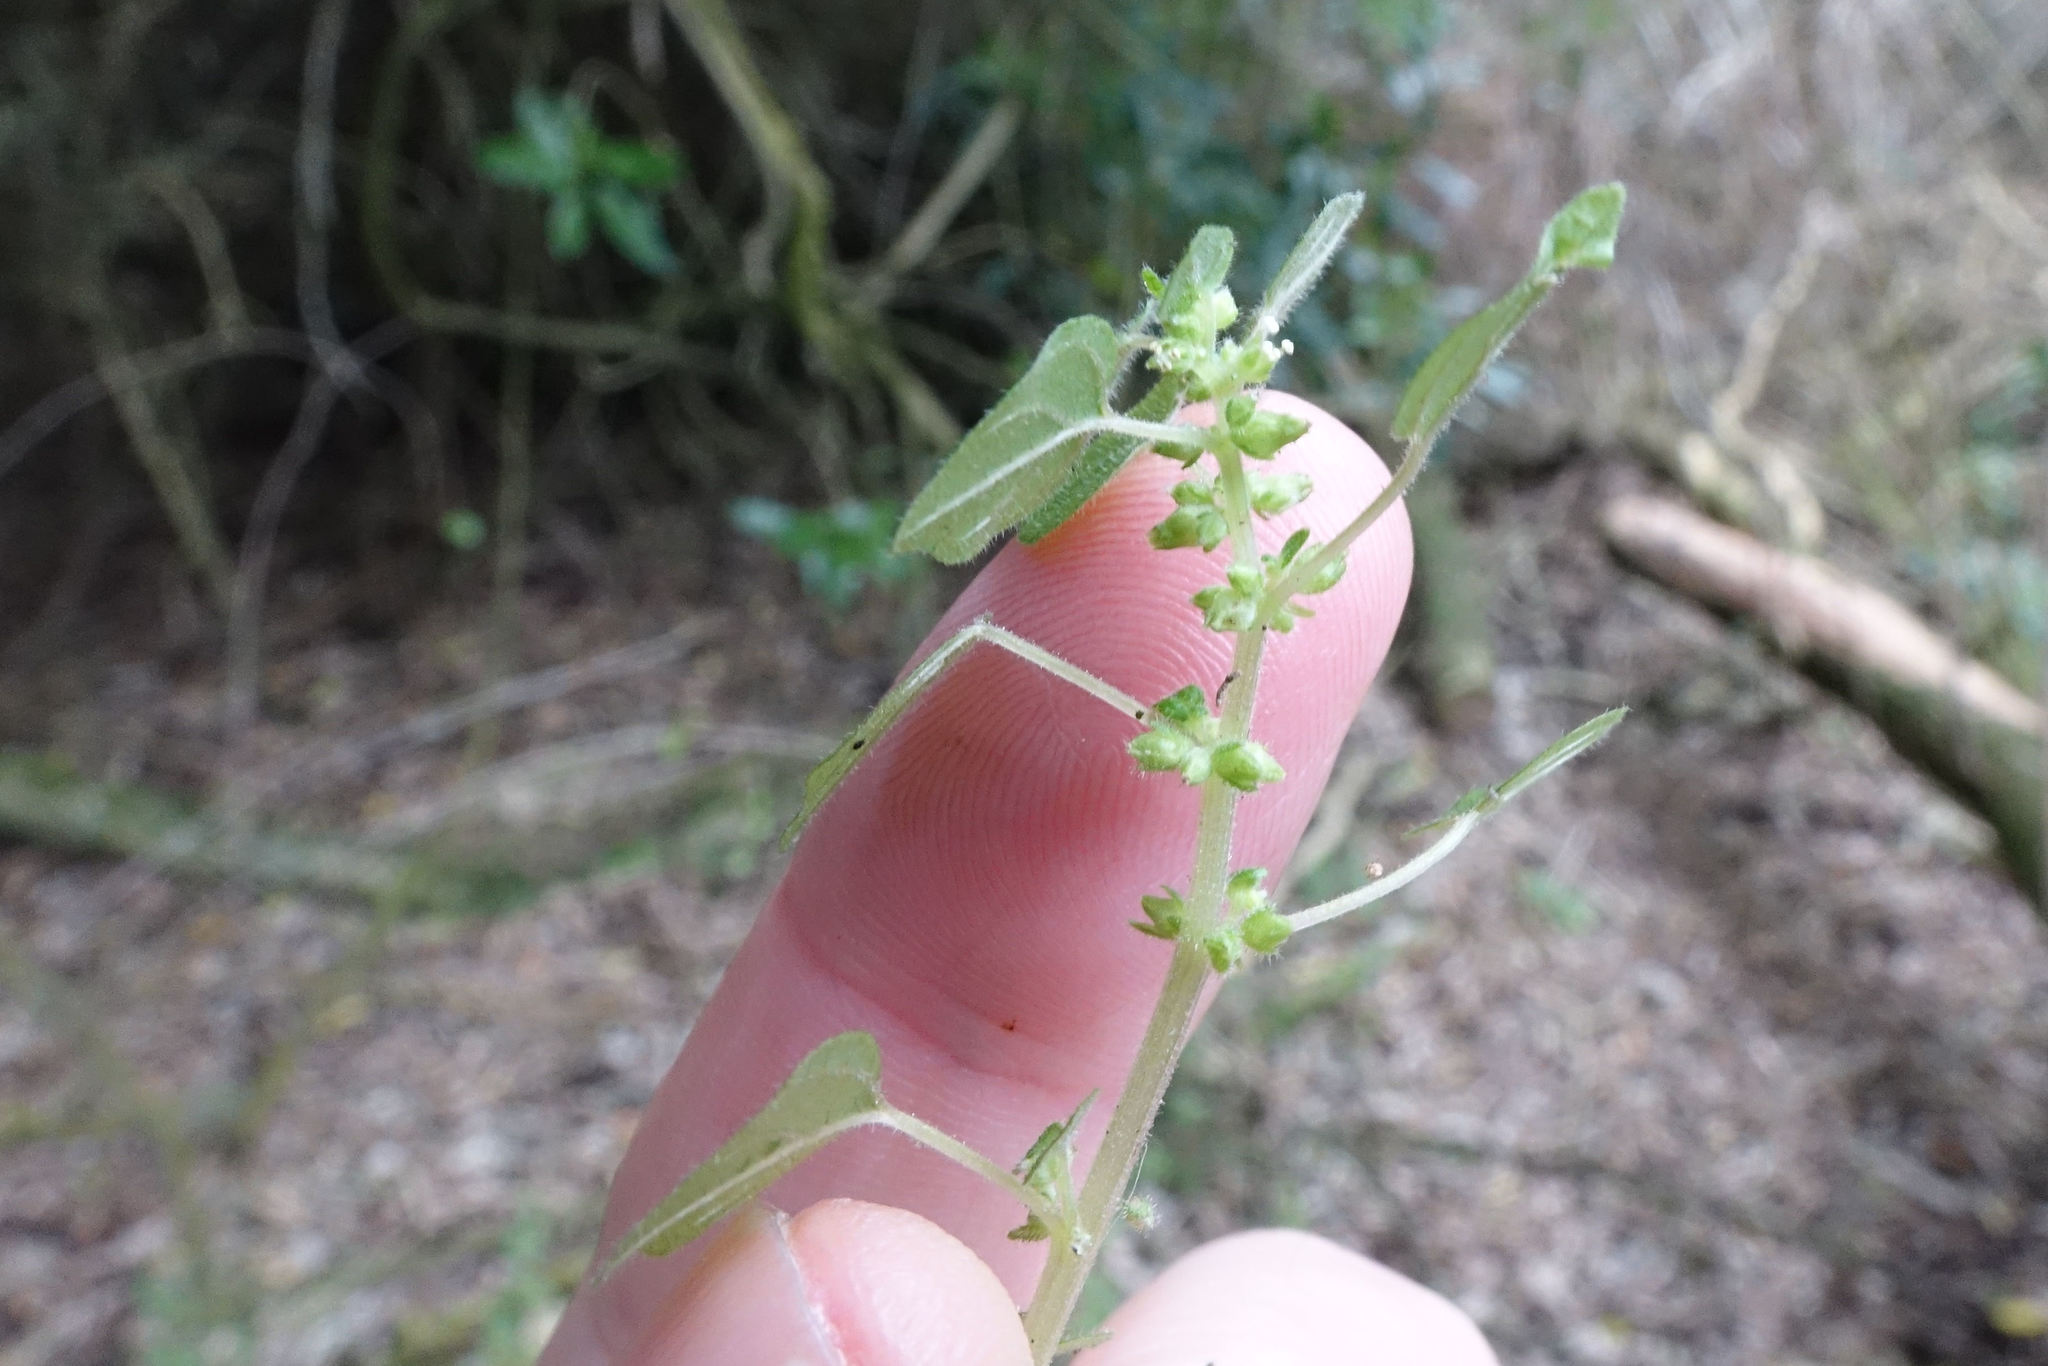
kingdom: Plantae
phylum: Tracheophyta
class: Magnoliopsida
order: Rosales
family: Urticaceae
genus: Parietaria
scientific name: Parietaria debilis
